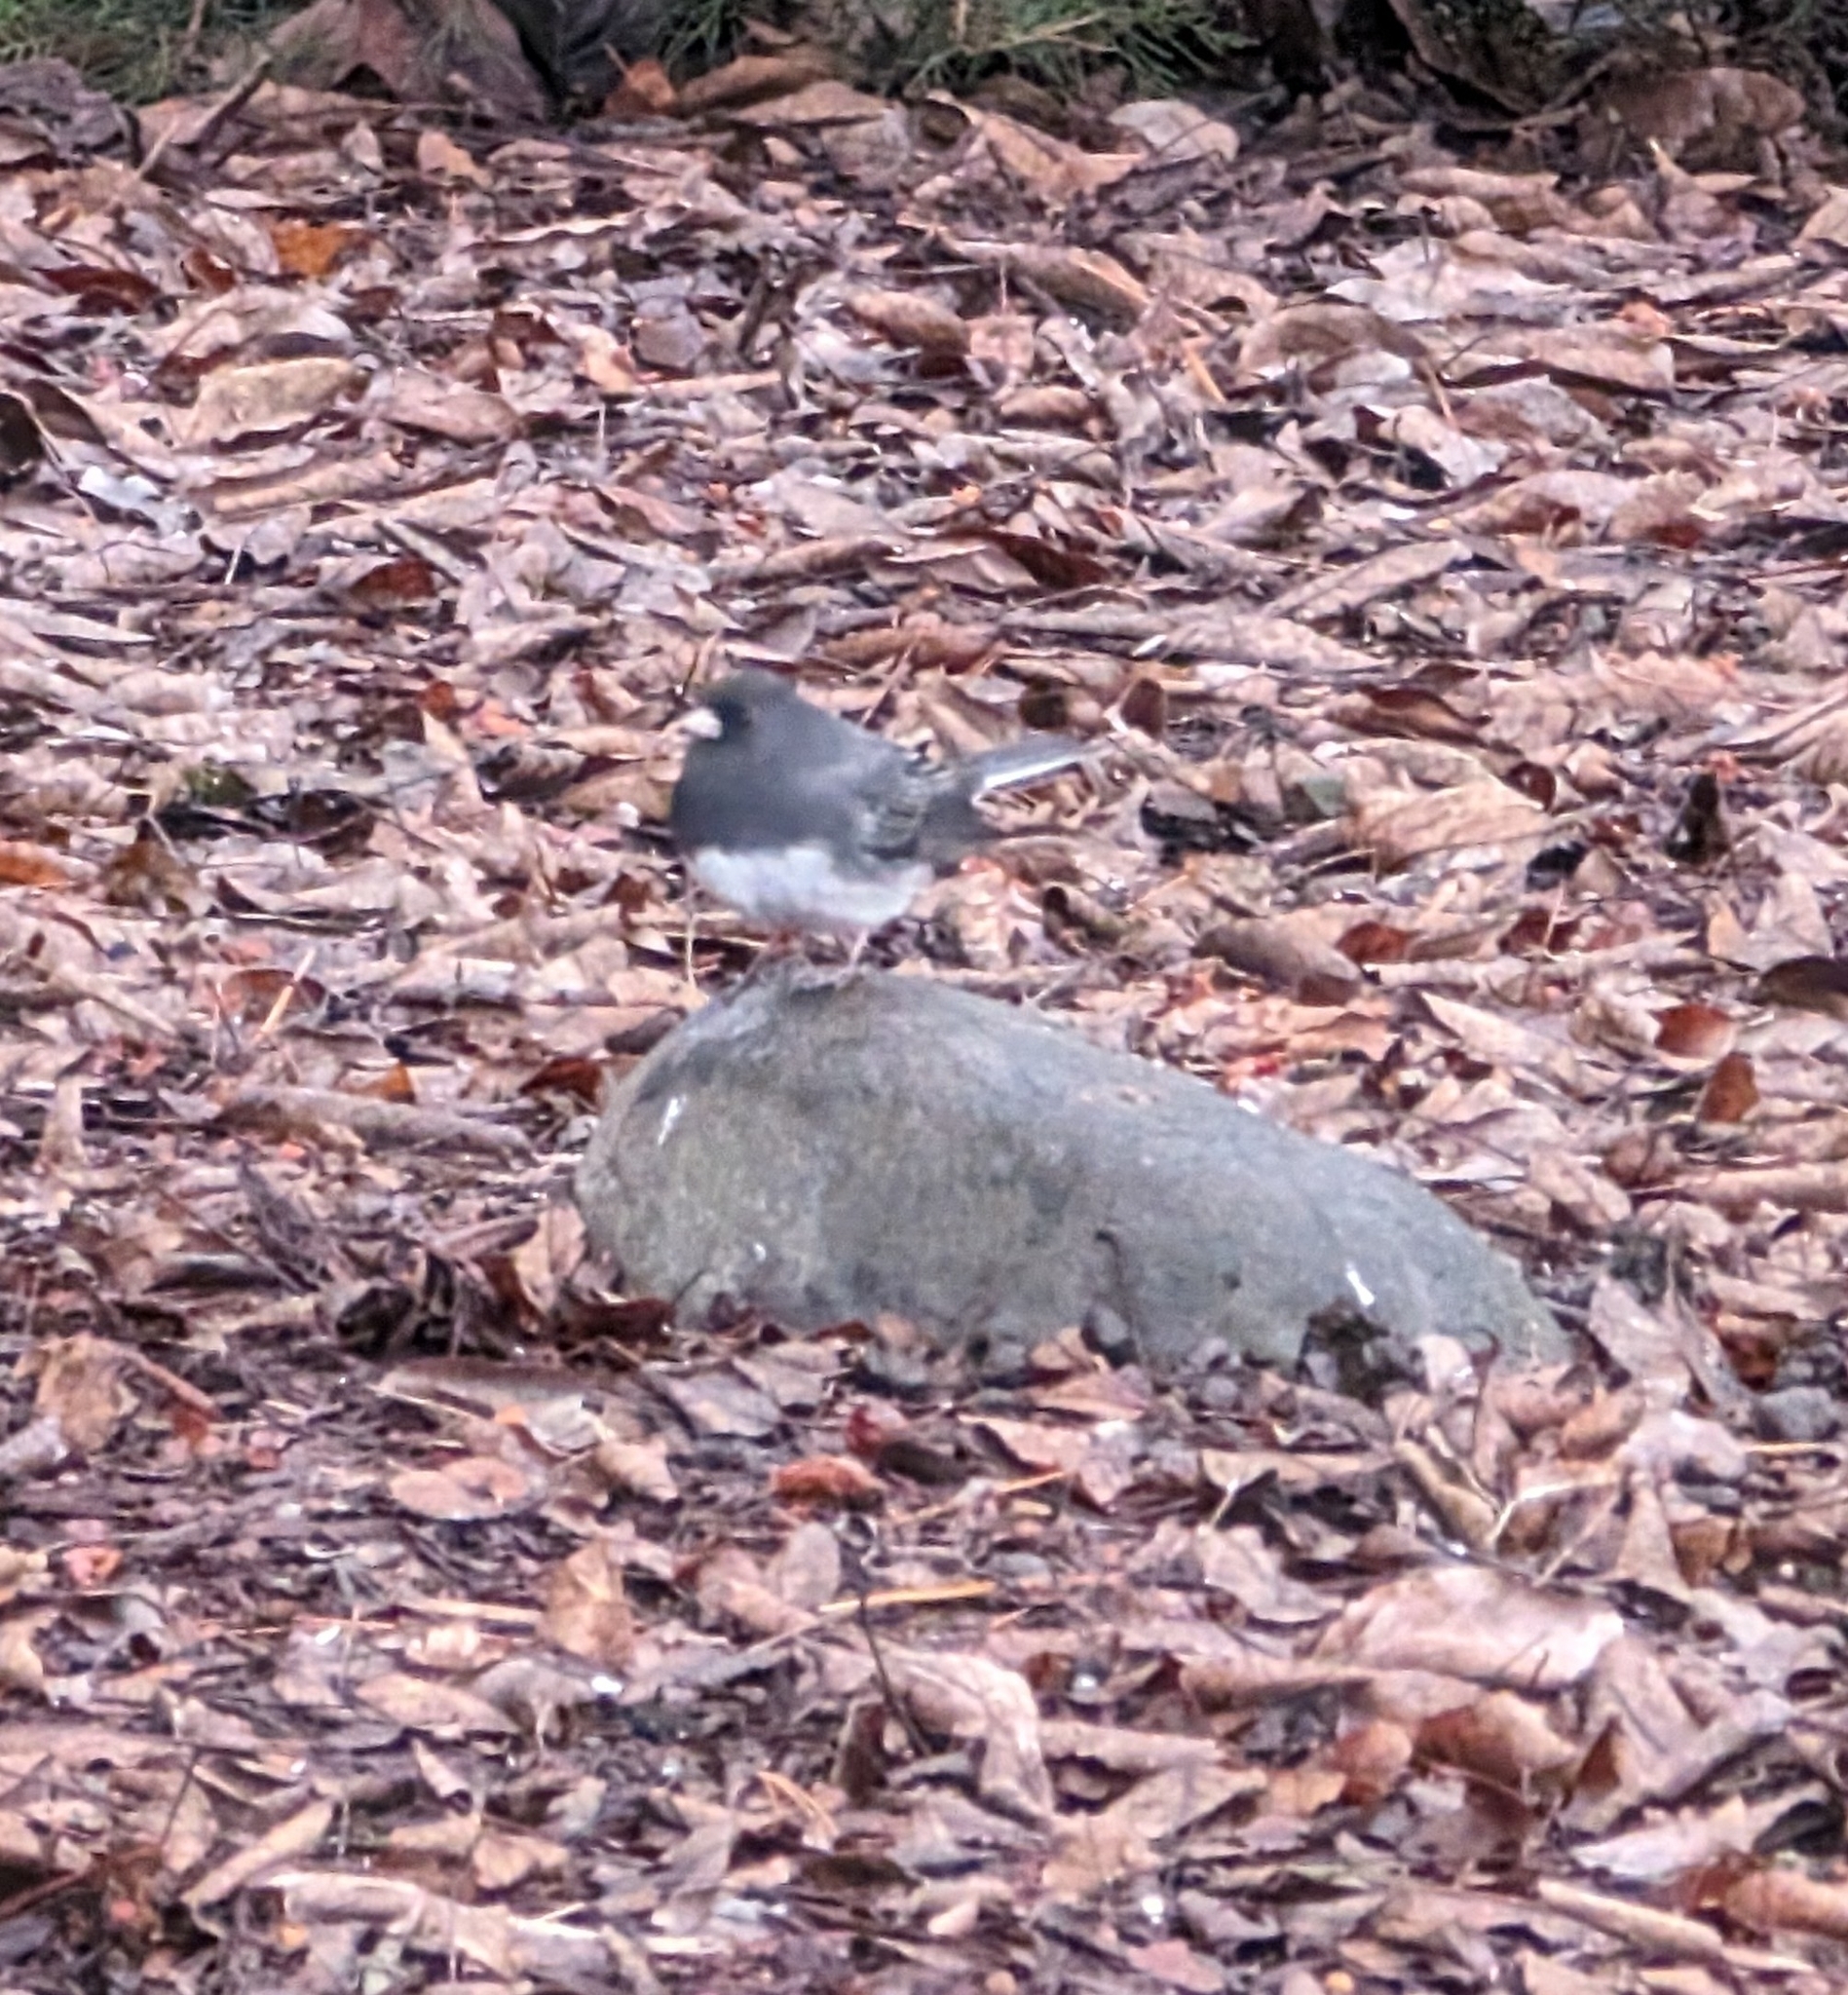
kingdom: Animalia
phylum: Chordata
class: Aves
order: Passeriformes
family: Passerellidae
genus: Junco
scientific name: Junco hyemalis
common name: Dark-eyed junco
